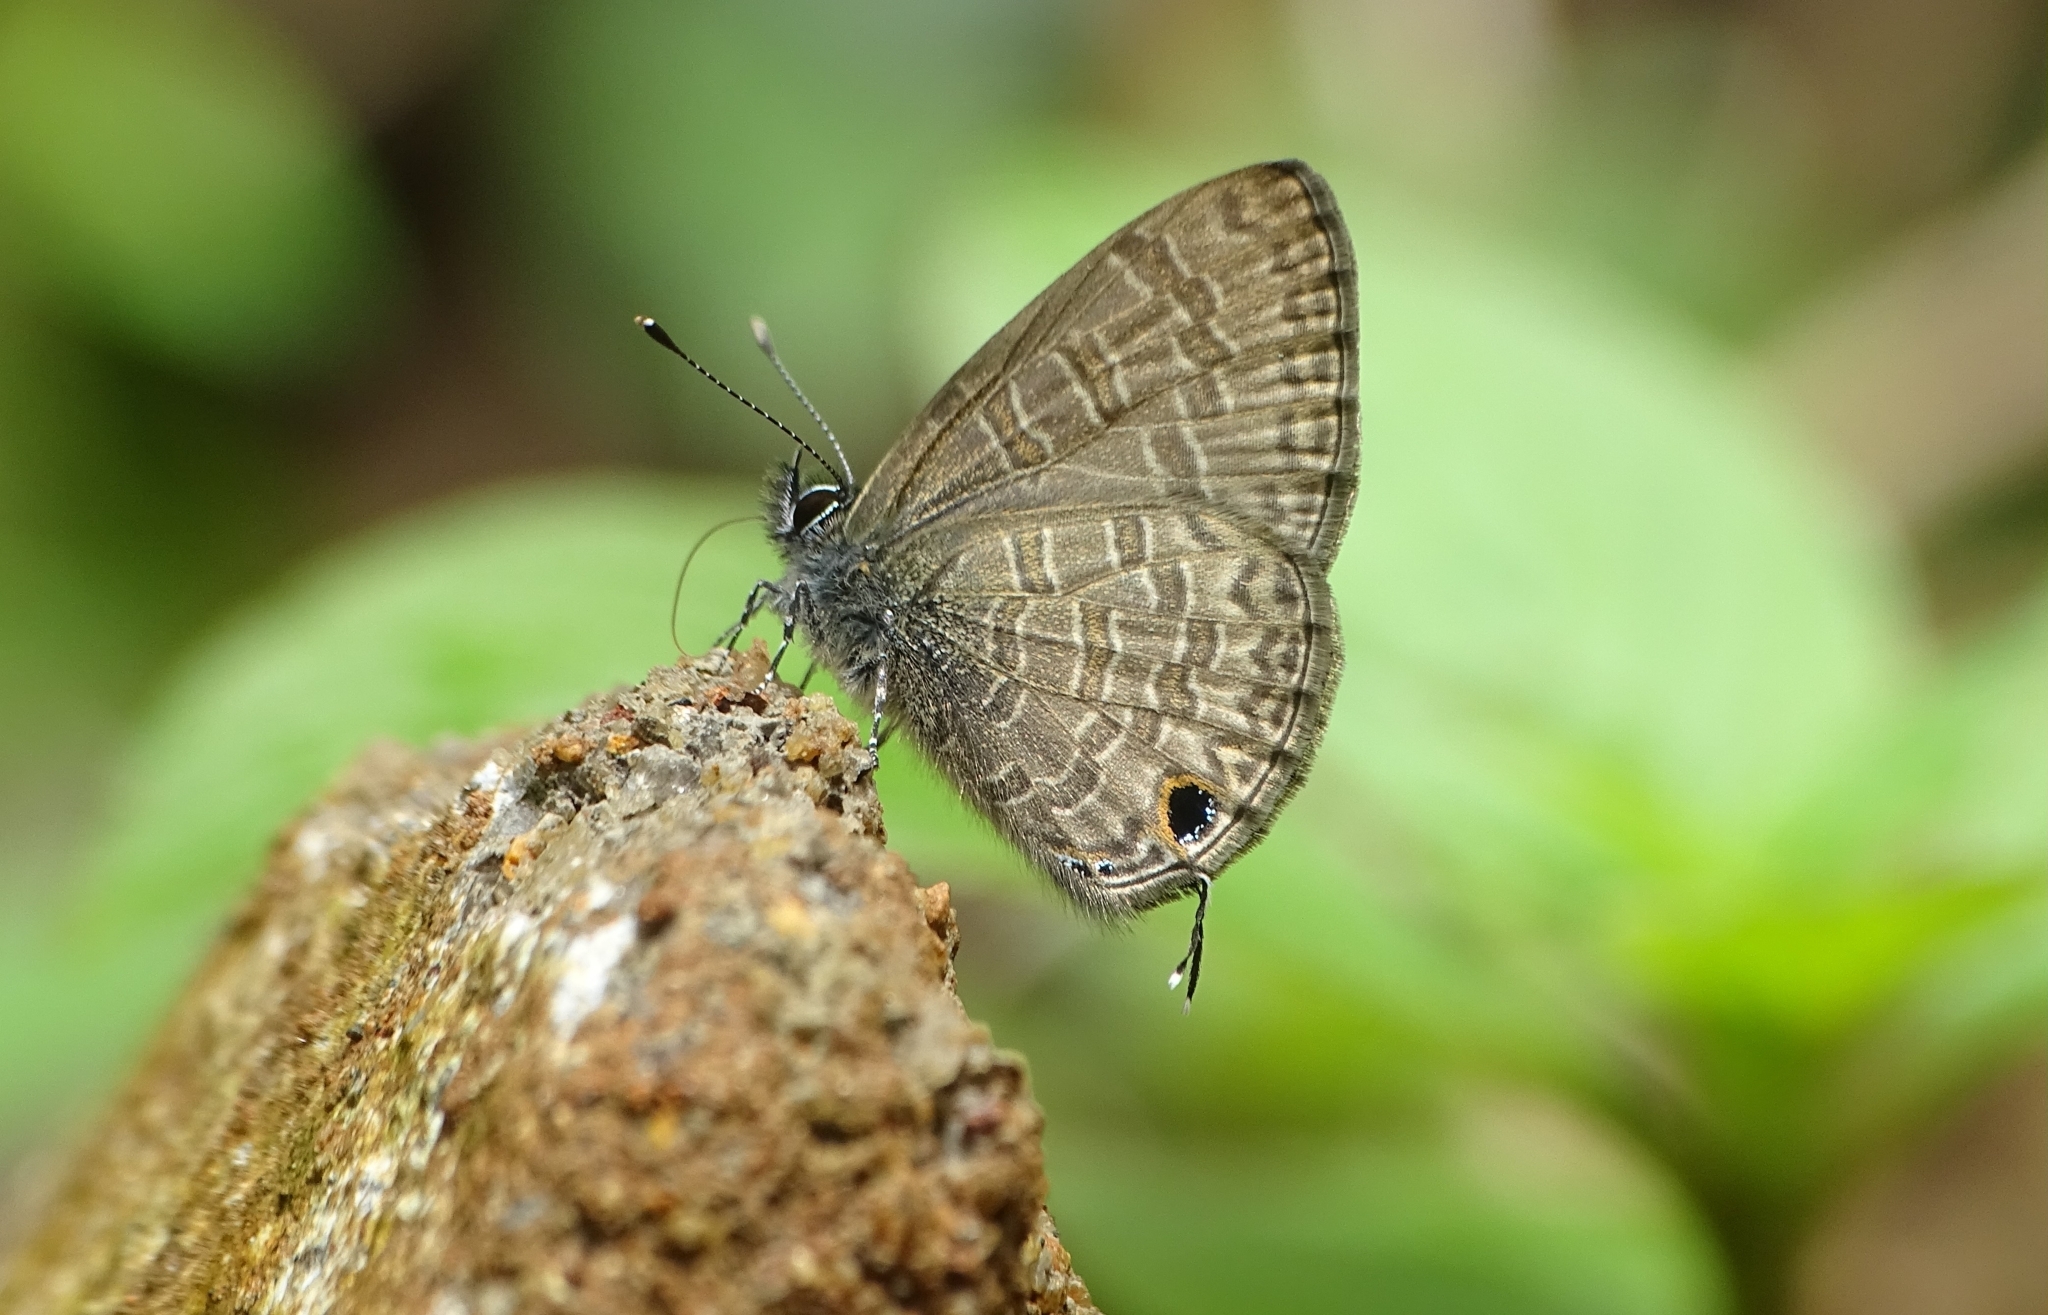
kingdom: Animalia
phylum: Arthropoda
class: Insecta
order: Lepidoptera
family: Lycaenidae
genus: Prosotas
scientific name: Prosotas nora
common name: Common line blue
